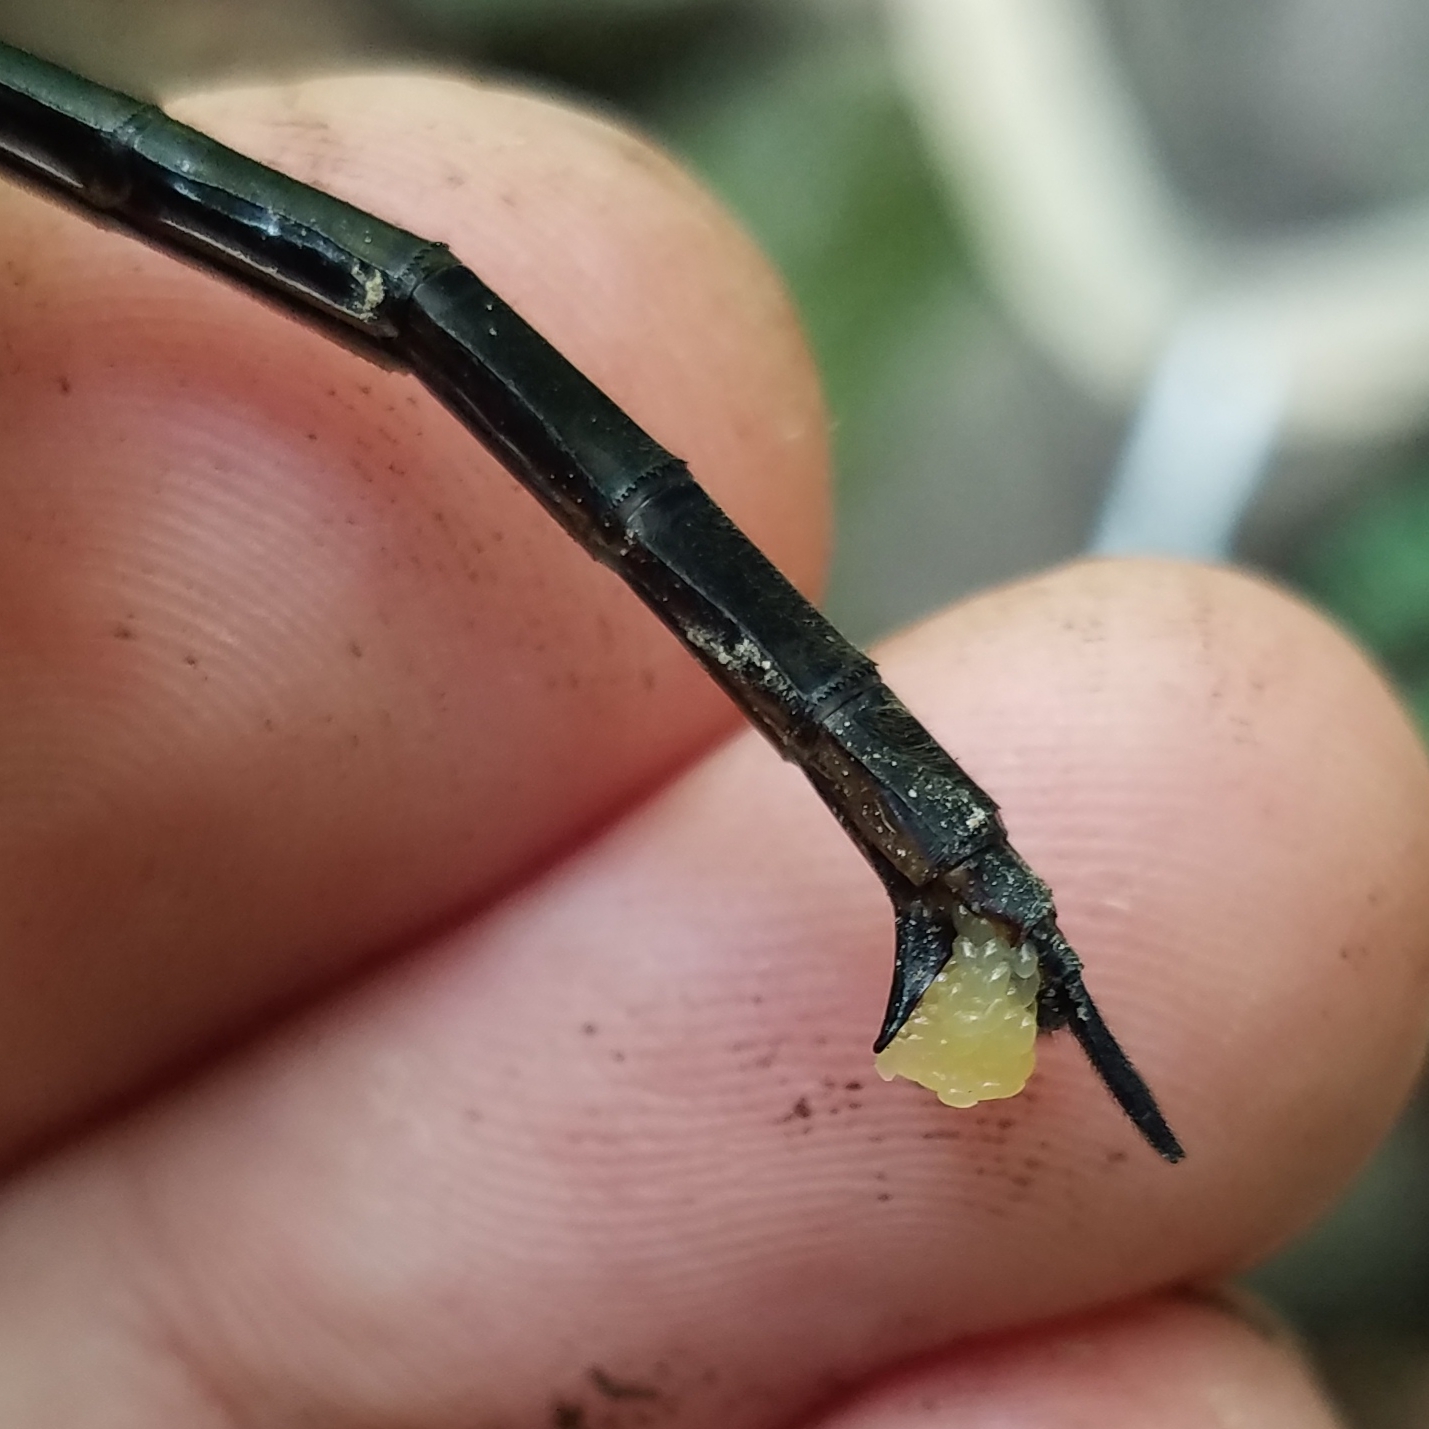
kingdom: Animalia
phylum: Arthropoda
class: Insecta
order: Odonata
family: Corduliidae
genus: Somatochlora
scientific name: Somatochlora tenebrosa
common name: Clamp-tipped emerald
